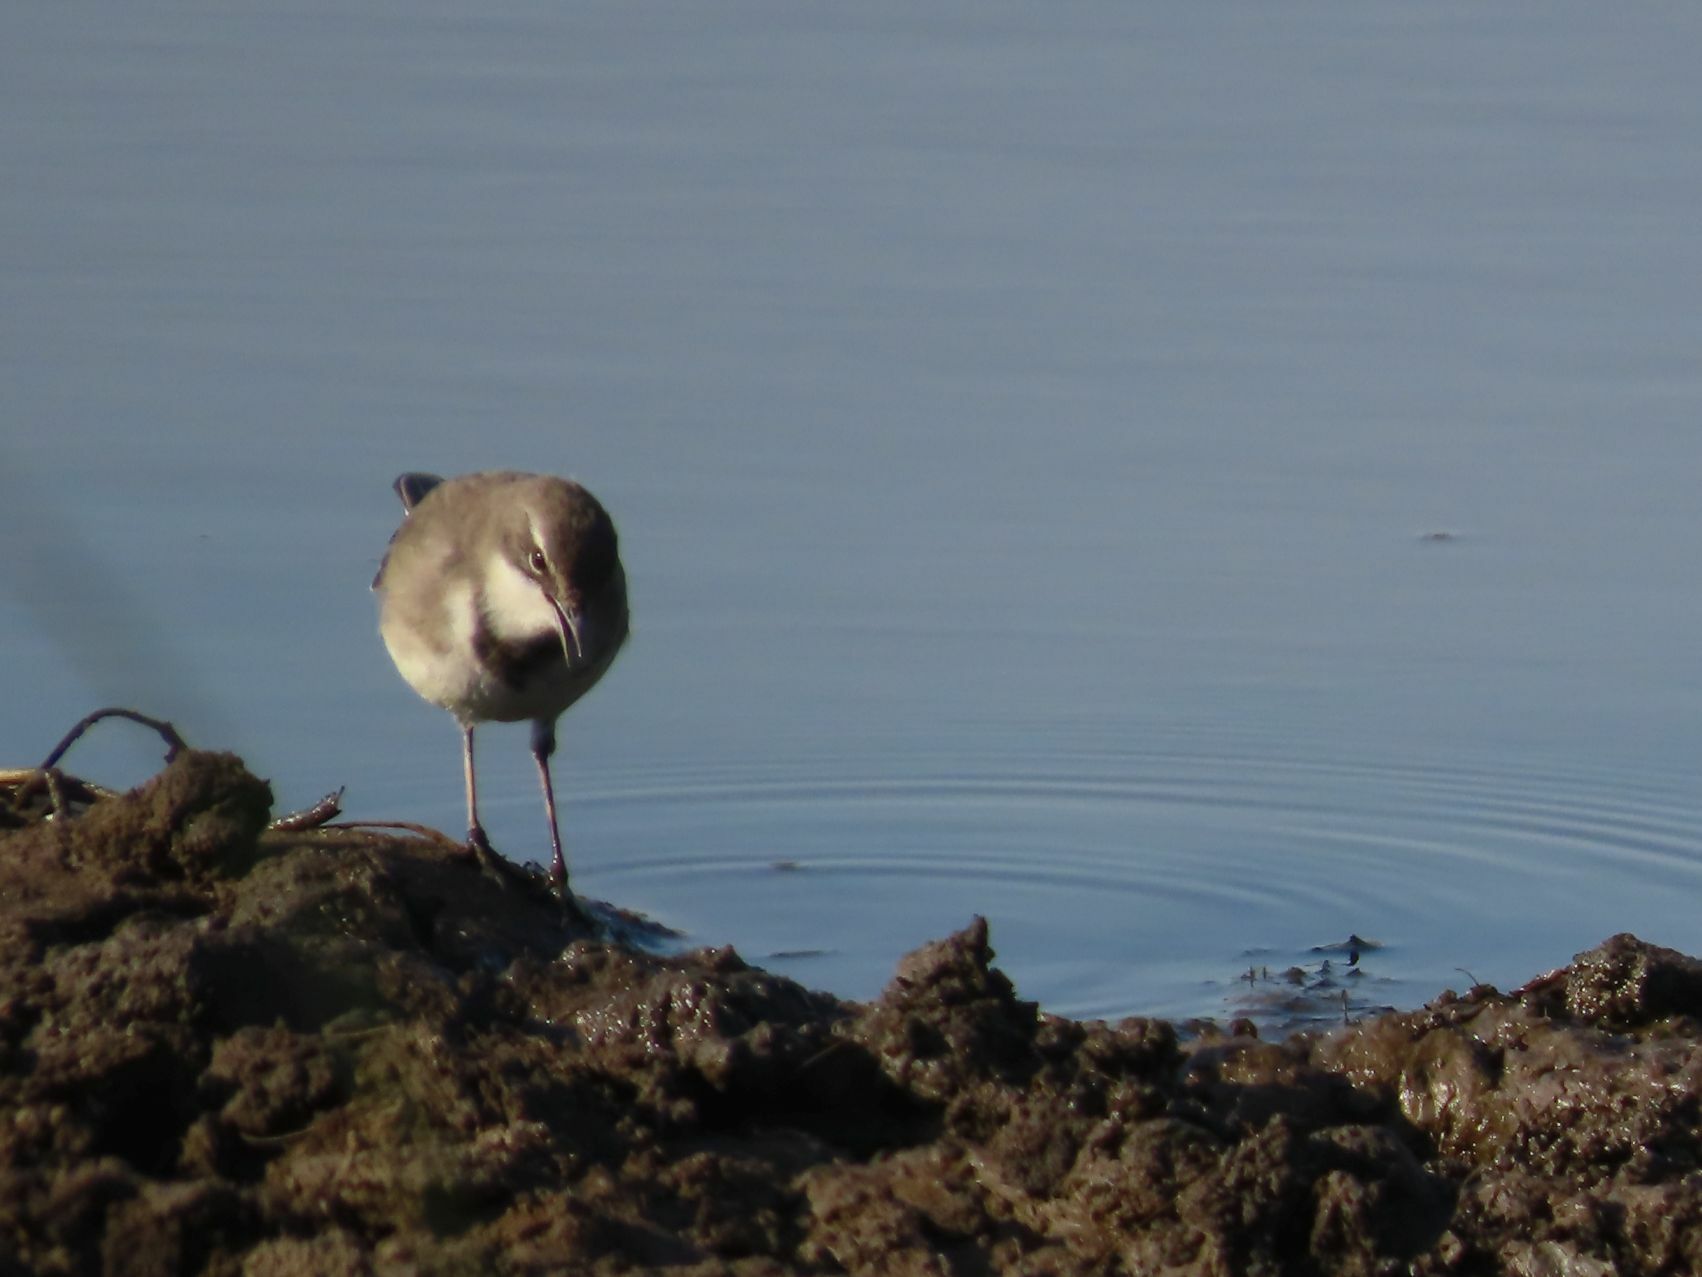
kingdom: Animalia
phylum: Chordata
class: Aves
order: Passeriformes
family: Motacillidae
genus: Motacilla
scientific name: Motacilla capensis
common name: Cape wagtail
